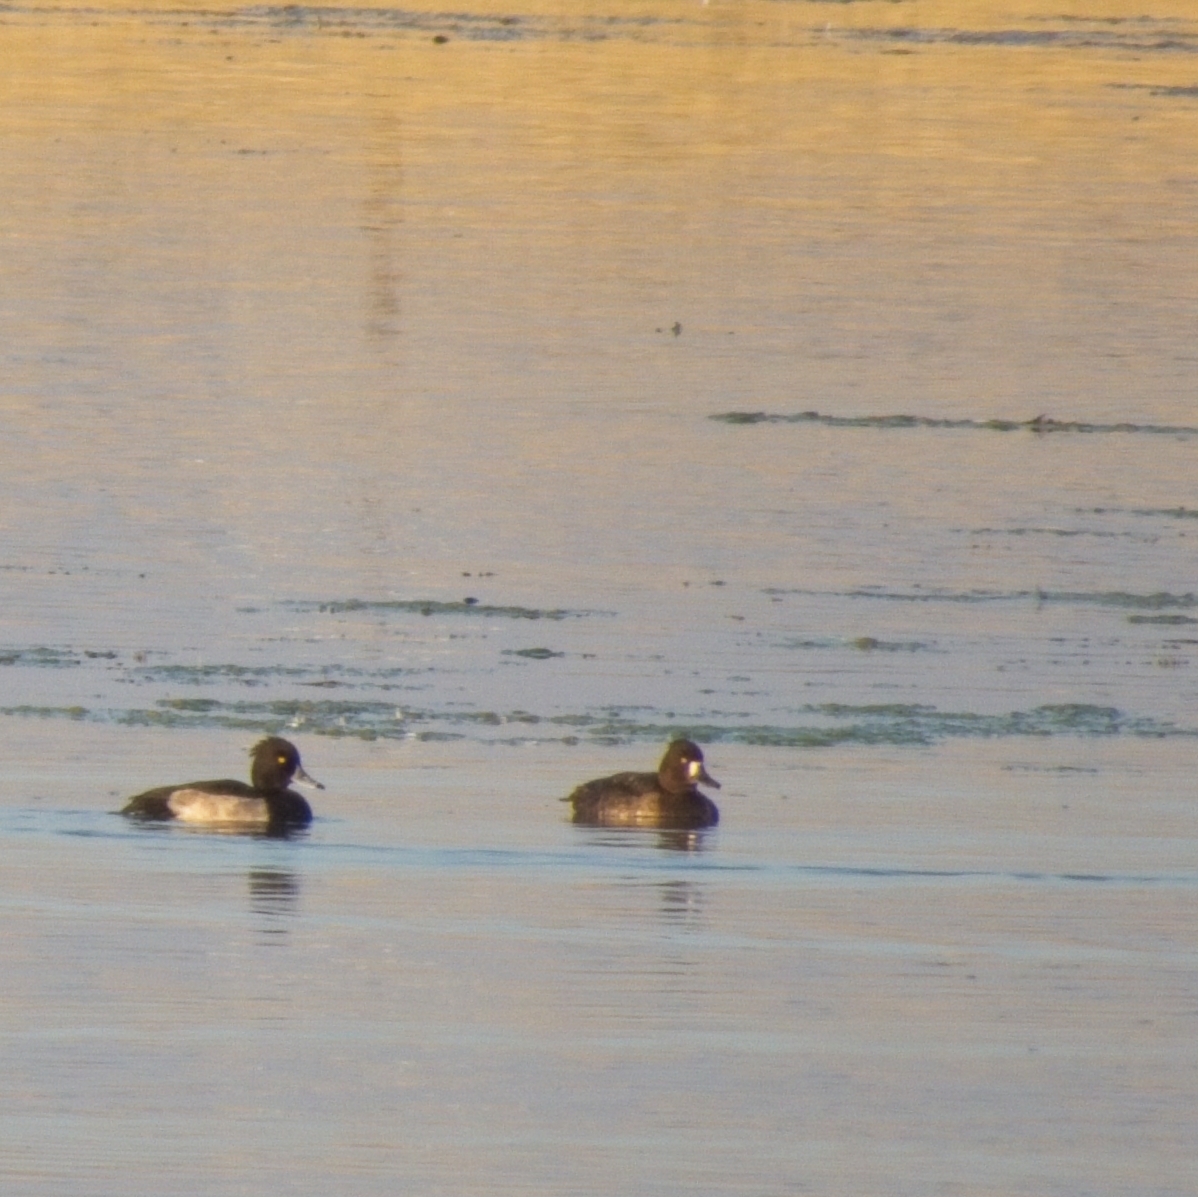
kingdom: Animalia
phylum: Chordata
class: Aves
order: Anseriformes
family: Anatidae
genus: Aythya
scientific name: Aythya fuligula
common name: Tufted duck
